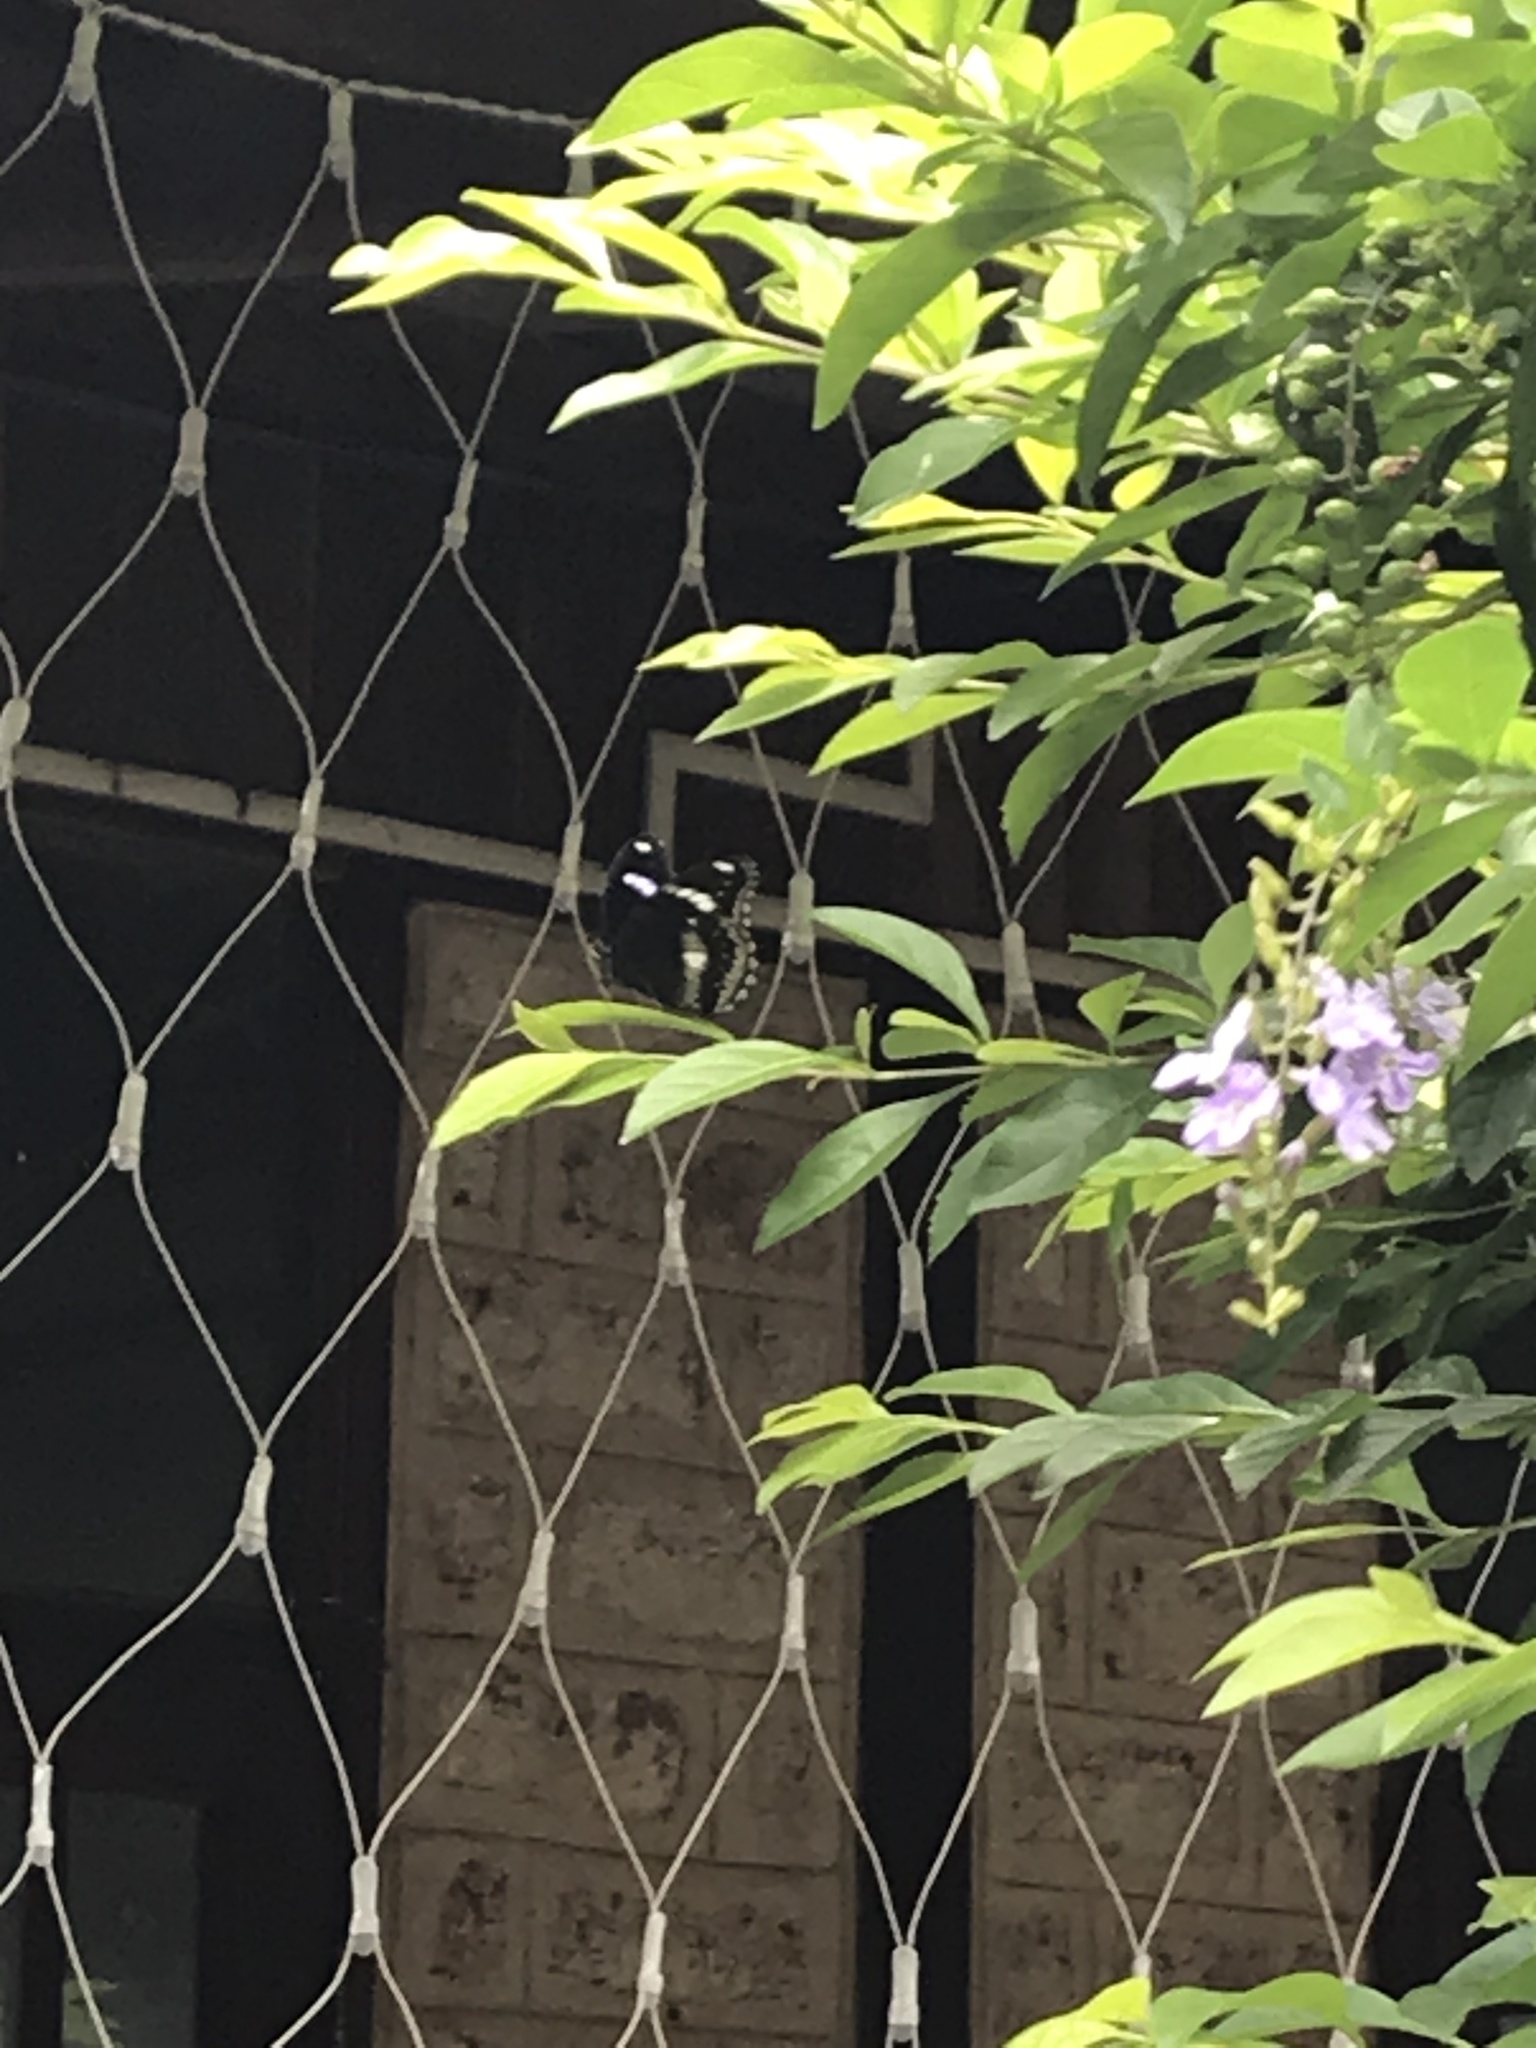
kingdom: Animalia
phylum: Arthropoda
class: Insecta
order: Lepidoptera
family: Nymphalidae
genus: Hypolimnas
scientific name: Hypolimnas bolina
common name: Great eggfly
